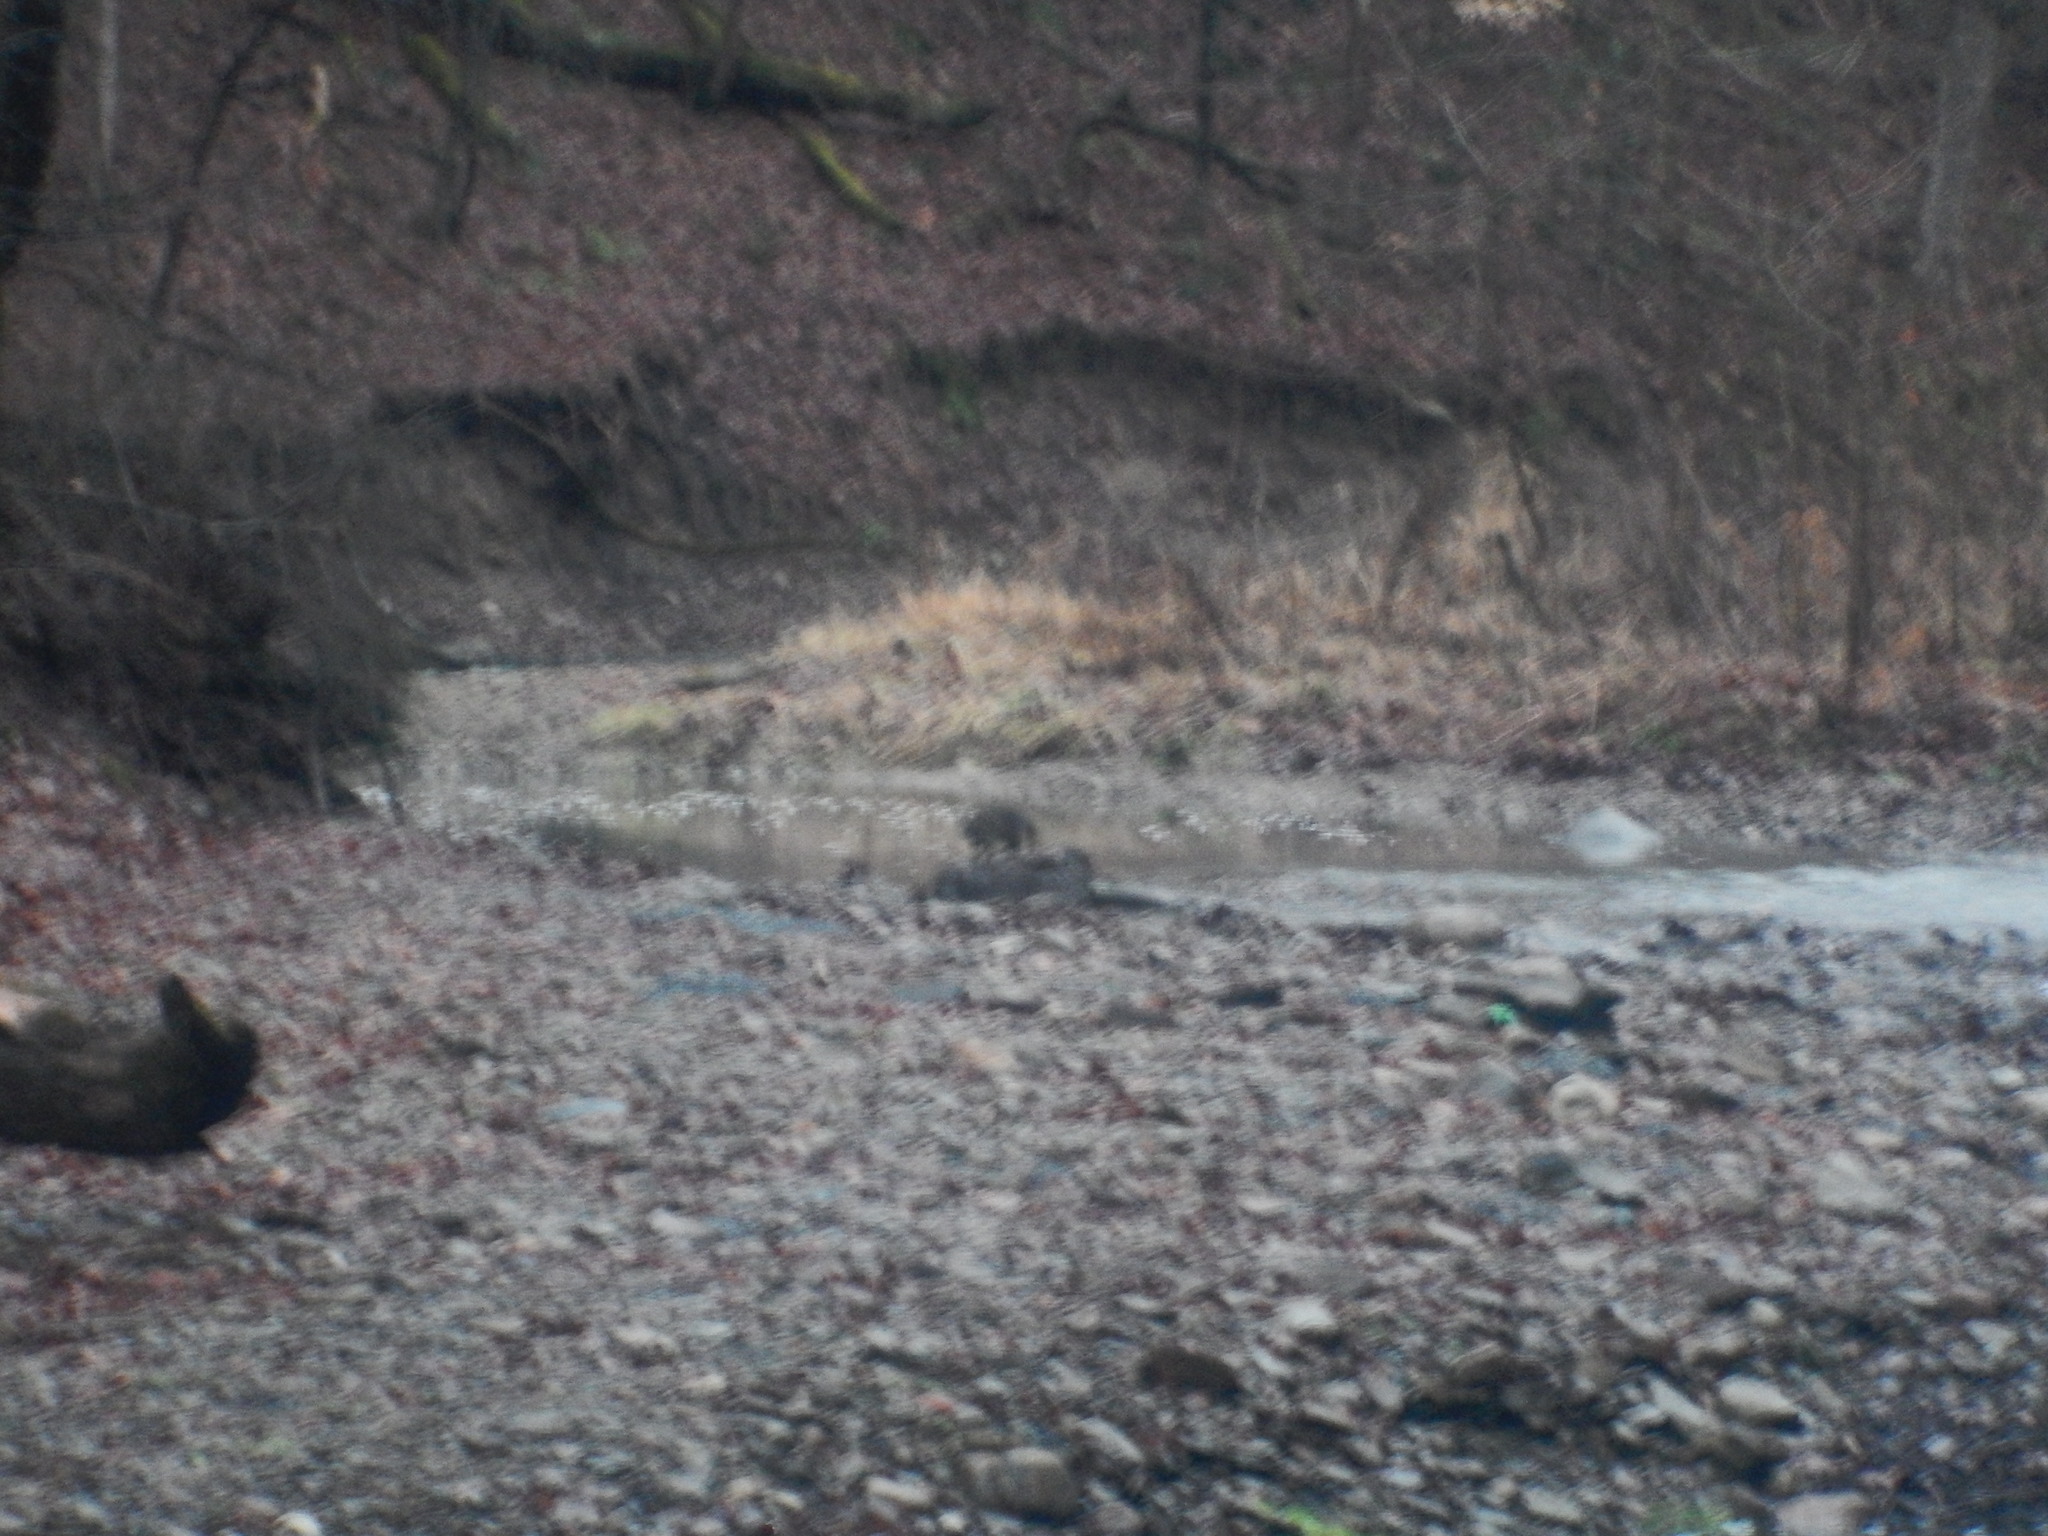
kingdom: Animalia
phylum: Chordata
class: Mammalia
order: Carnivora
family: Procyonidae
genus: Procyon
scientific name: Procyon lotor
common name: Raccoon
